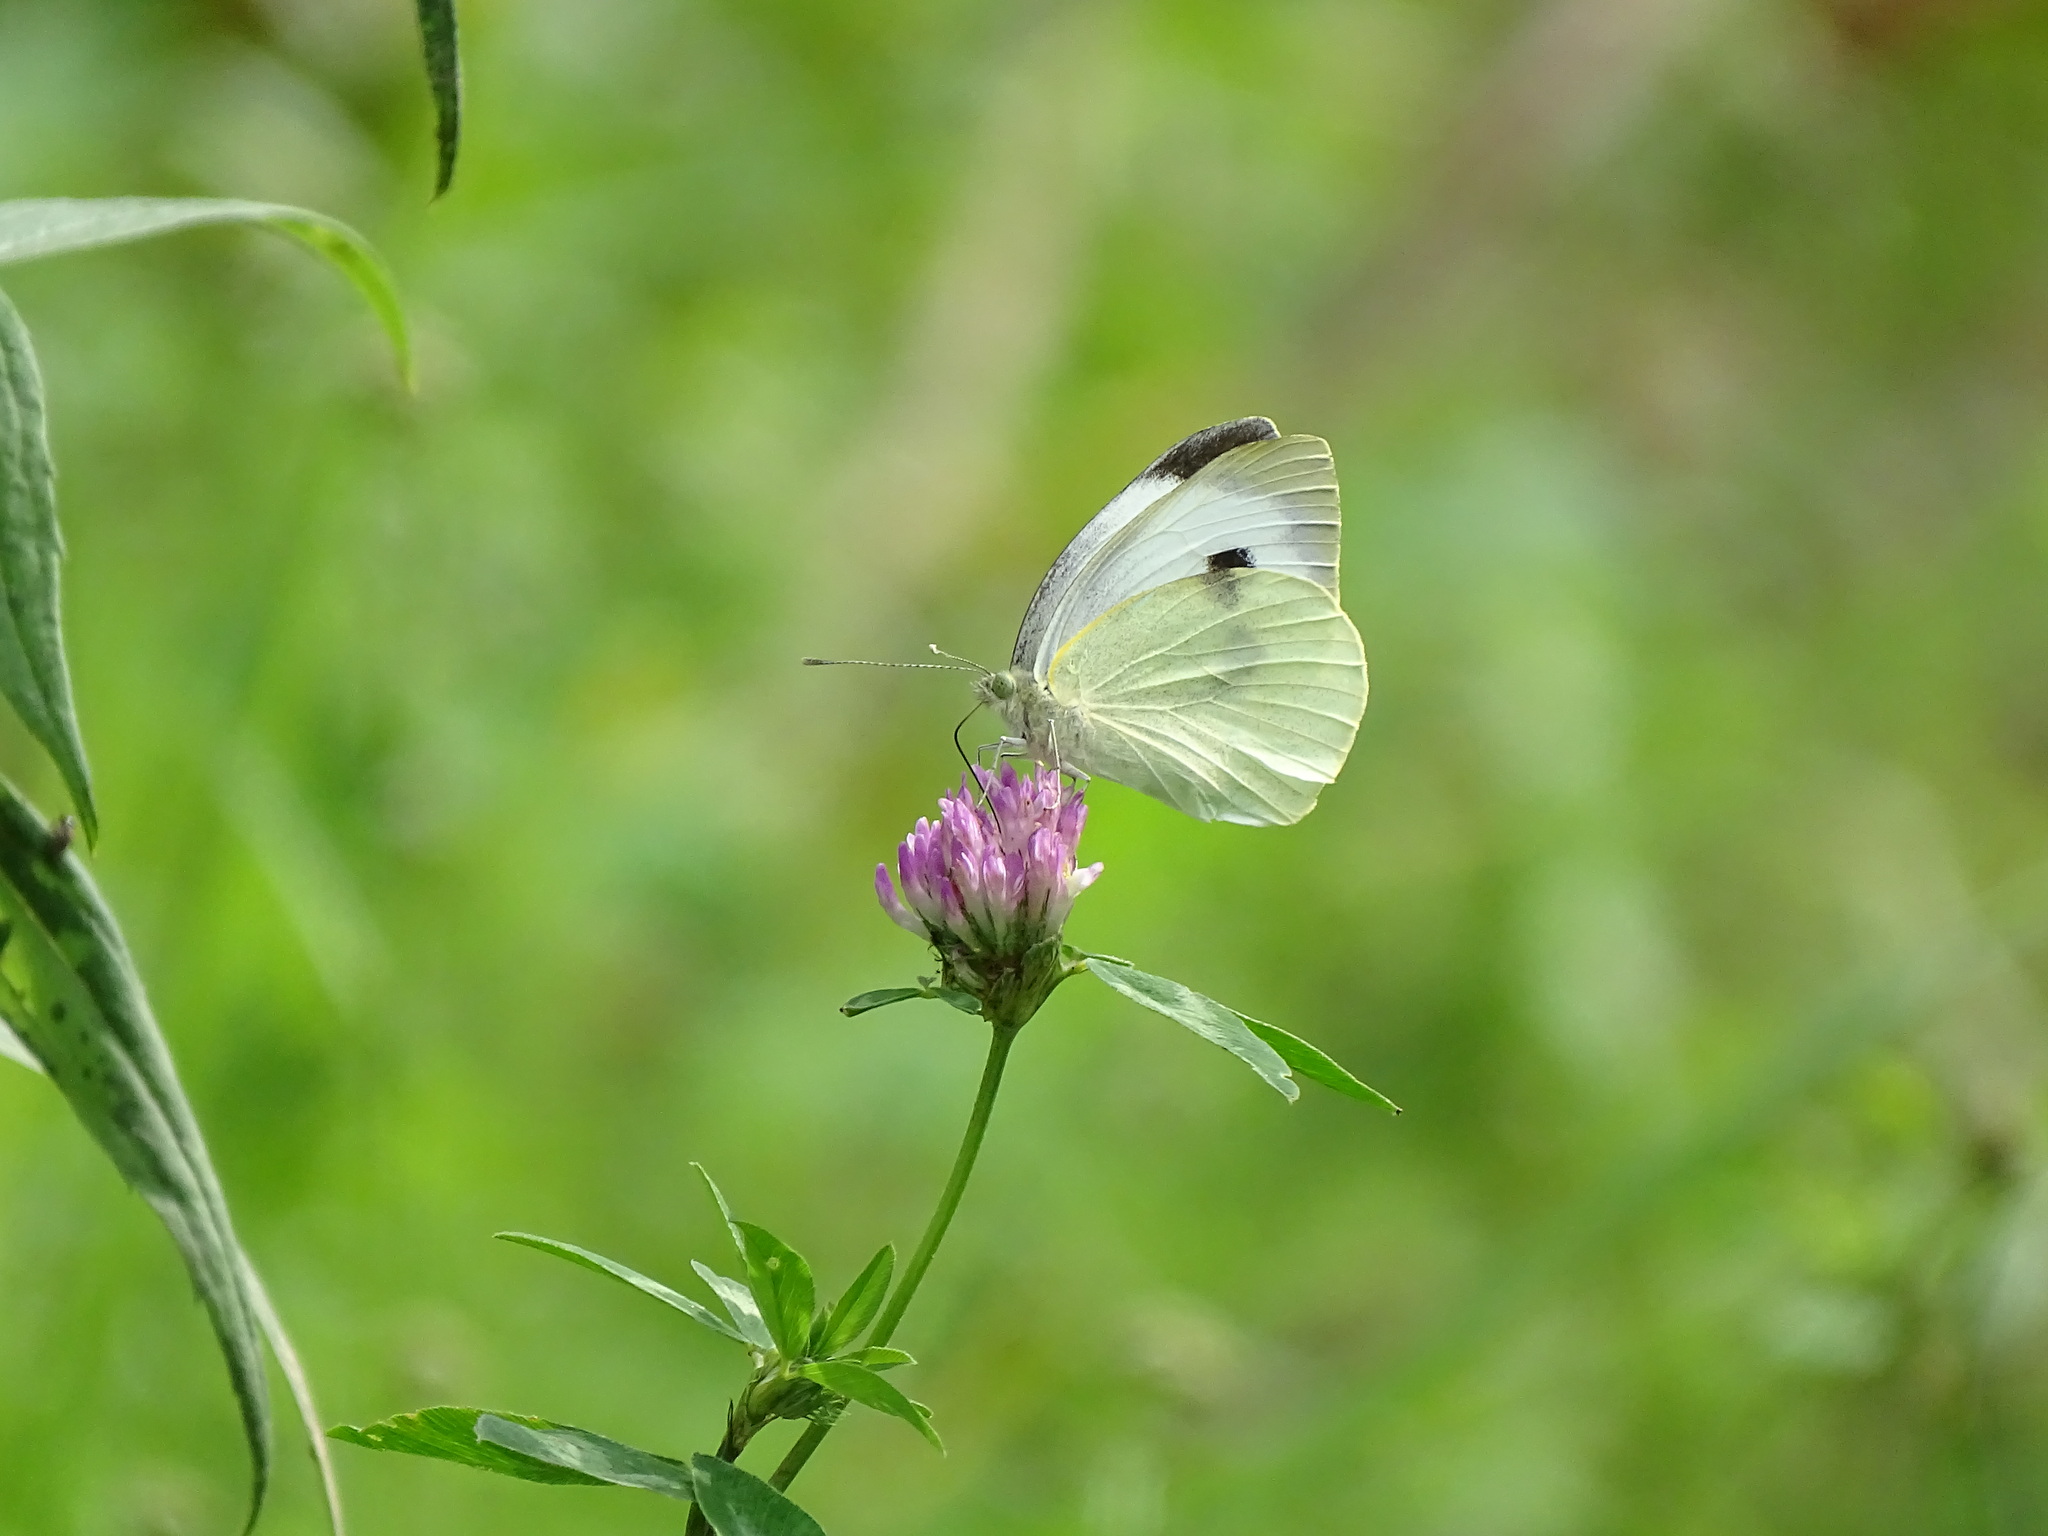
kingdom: Animalia
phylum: Arthropoda
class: Insecta
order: Lepidoptera
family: Pieridae
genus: Pieris
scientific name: Pieris brassicae
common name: Large white
